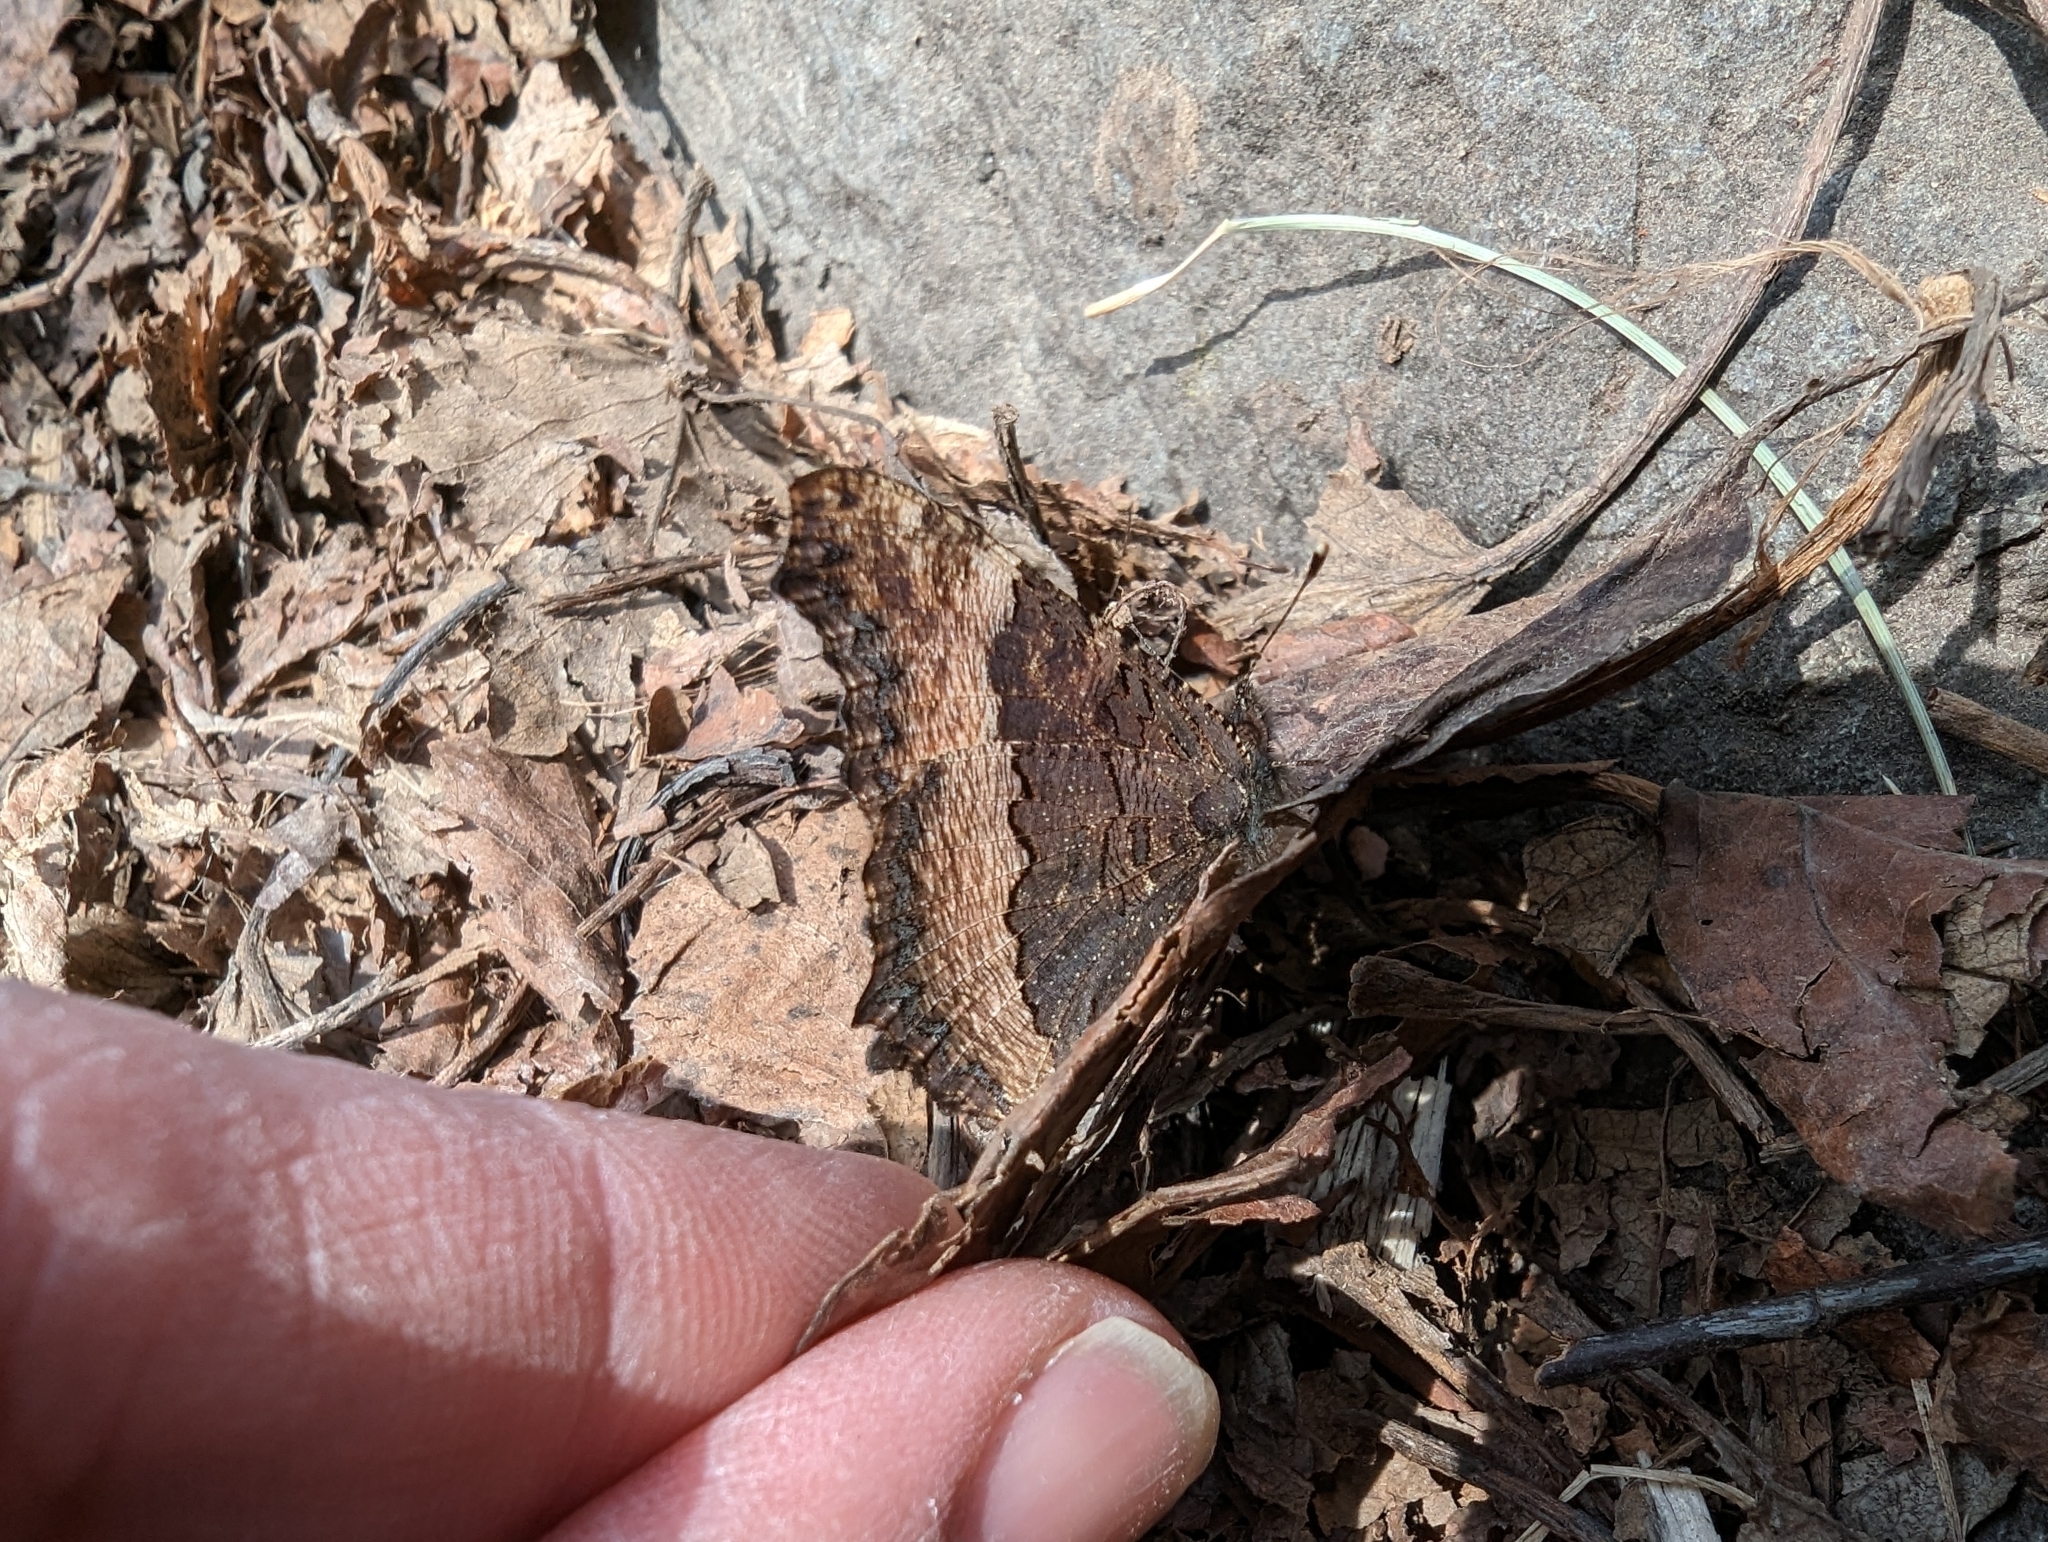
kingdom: Animalia
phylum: Arthropoda
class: Insecta
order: Lepidoptera
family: Nymphalidae
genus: Aglais
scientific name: Aglais milberti
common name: Milbert's tortoiseshell
